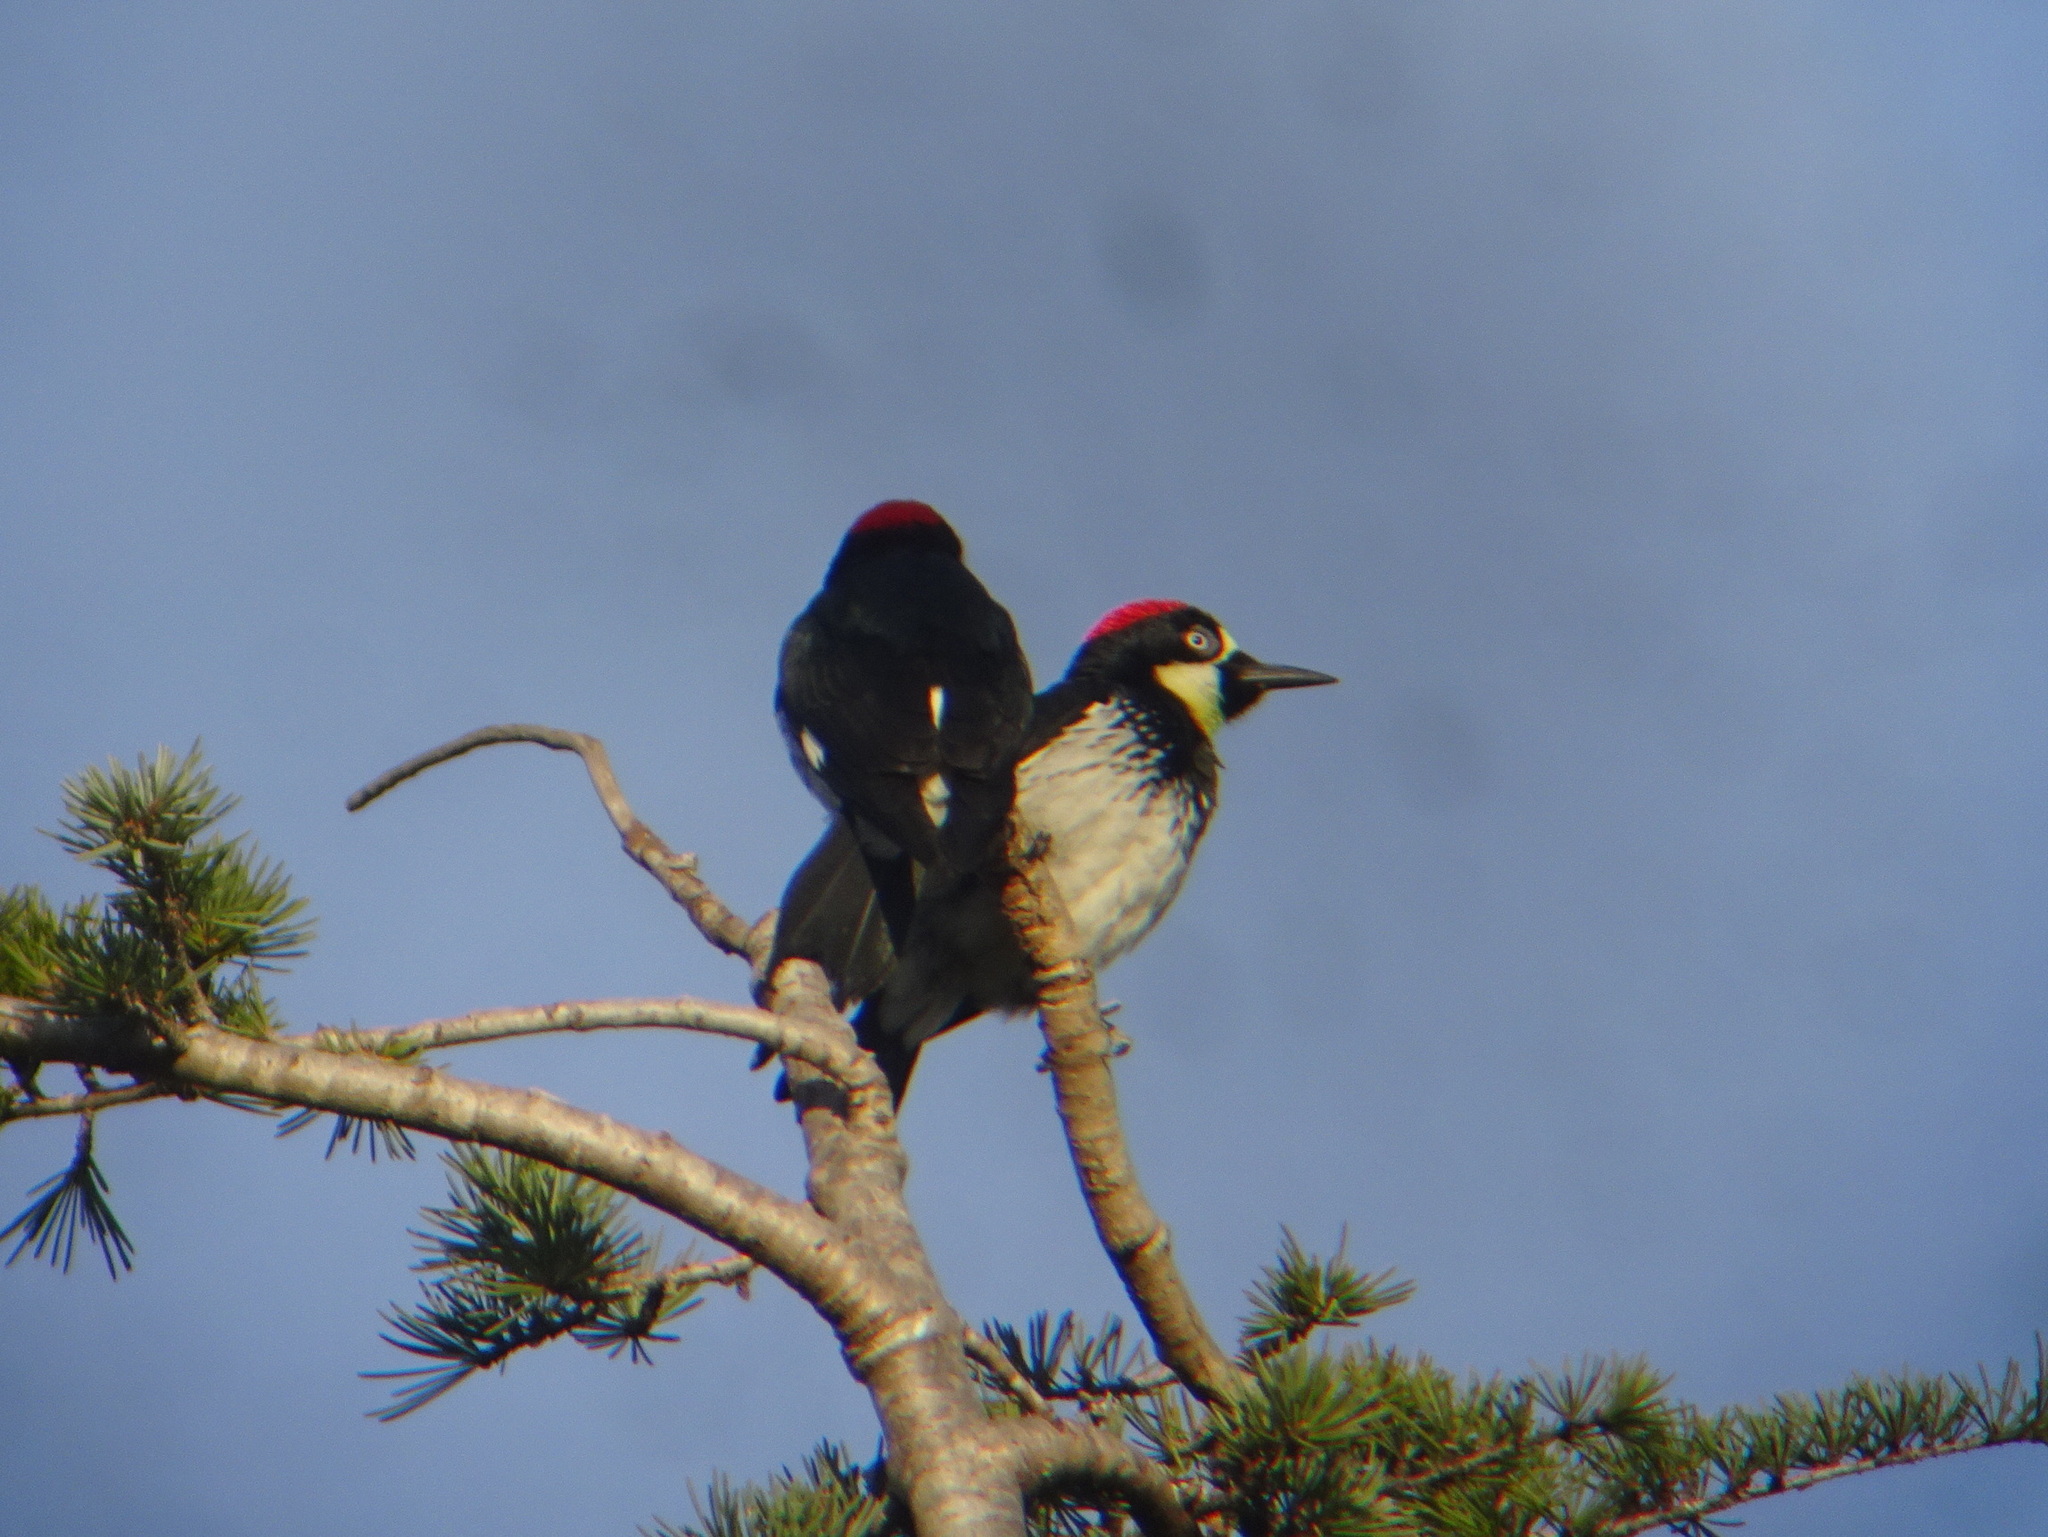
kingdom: Animalia
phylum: Chordata
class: Aves
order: Piciformes
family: Picidae
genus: Melanerpes
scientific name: Melanerpes formicivorus
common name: Acorn woodpecker
